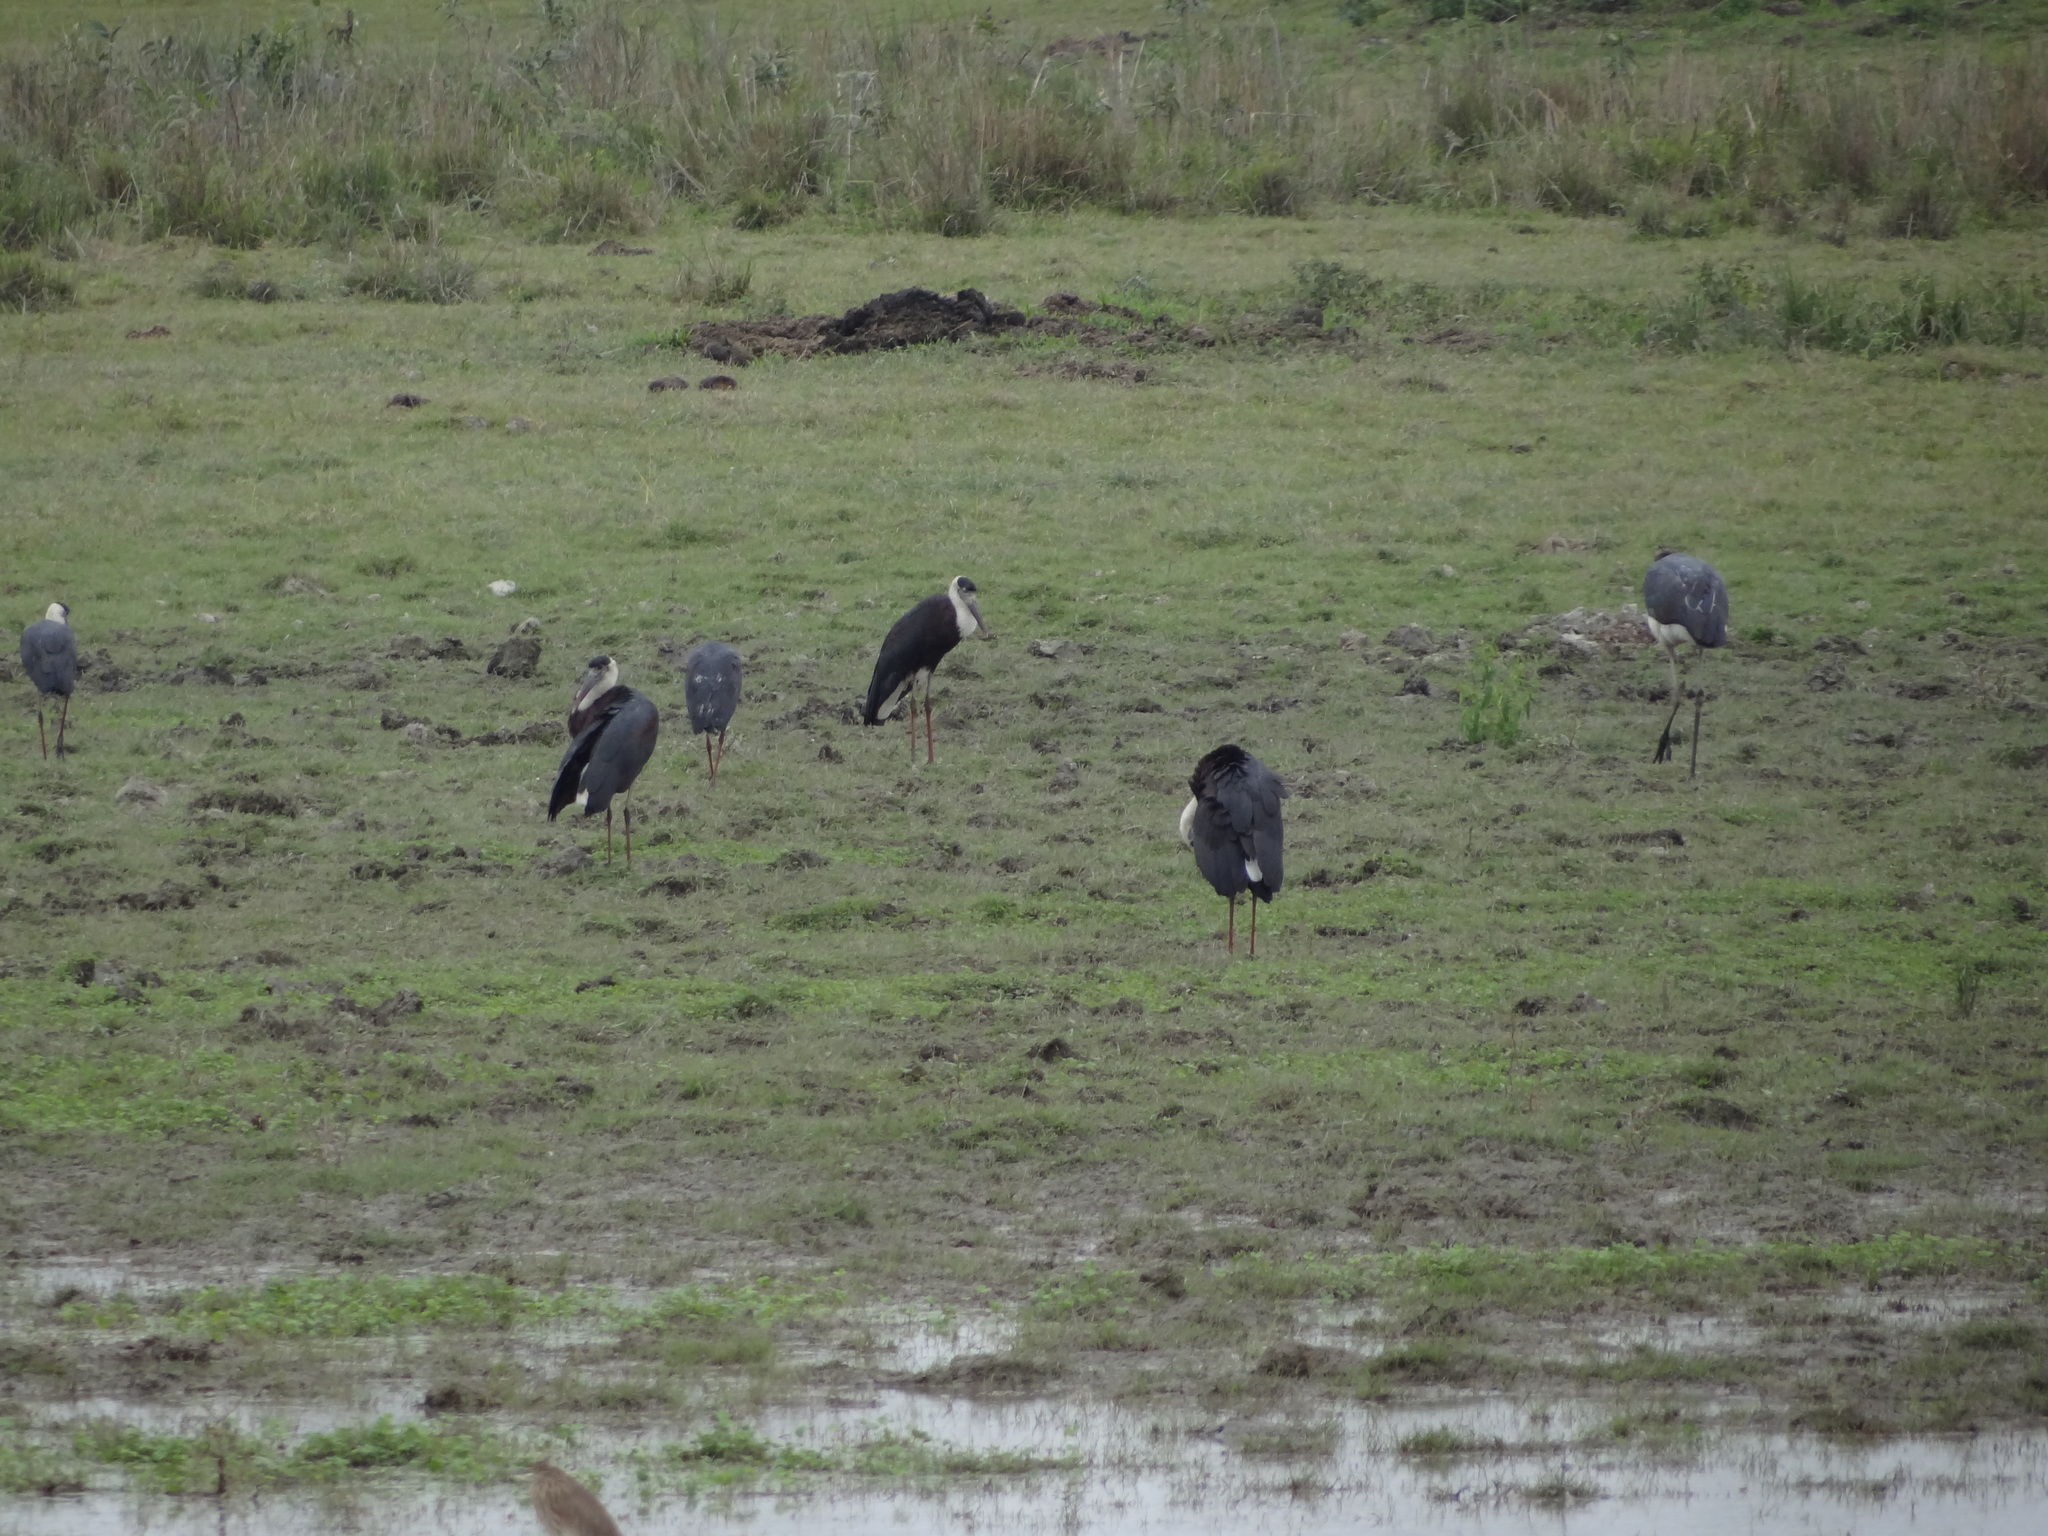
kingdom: Animalia
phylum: Chordata
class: Aves
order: Ciconiiformes
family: Ciconiidae
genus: Ciconia
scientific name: Ciconia episcopus
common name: Woolly-necked stork
